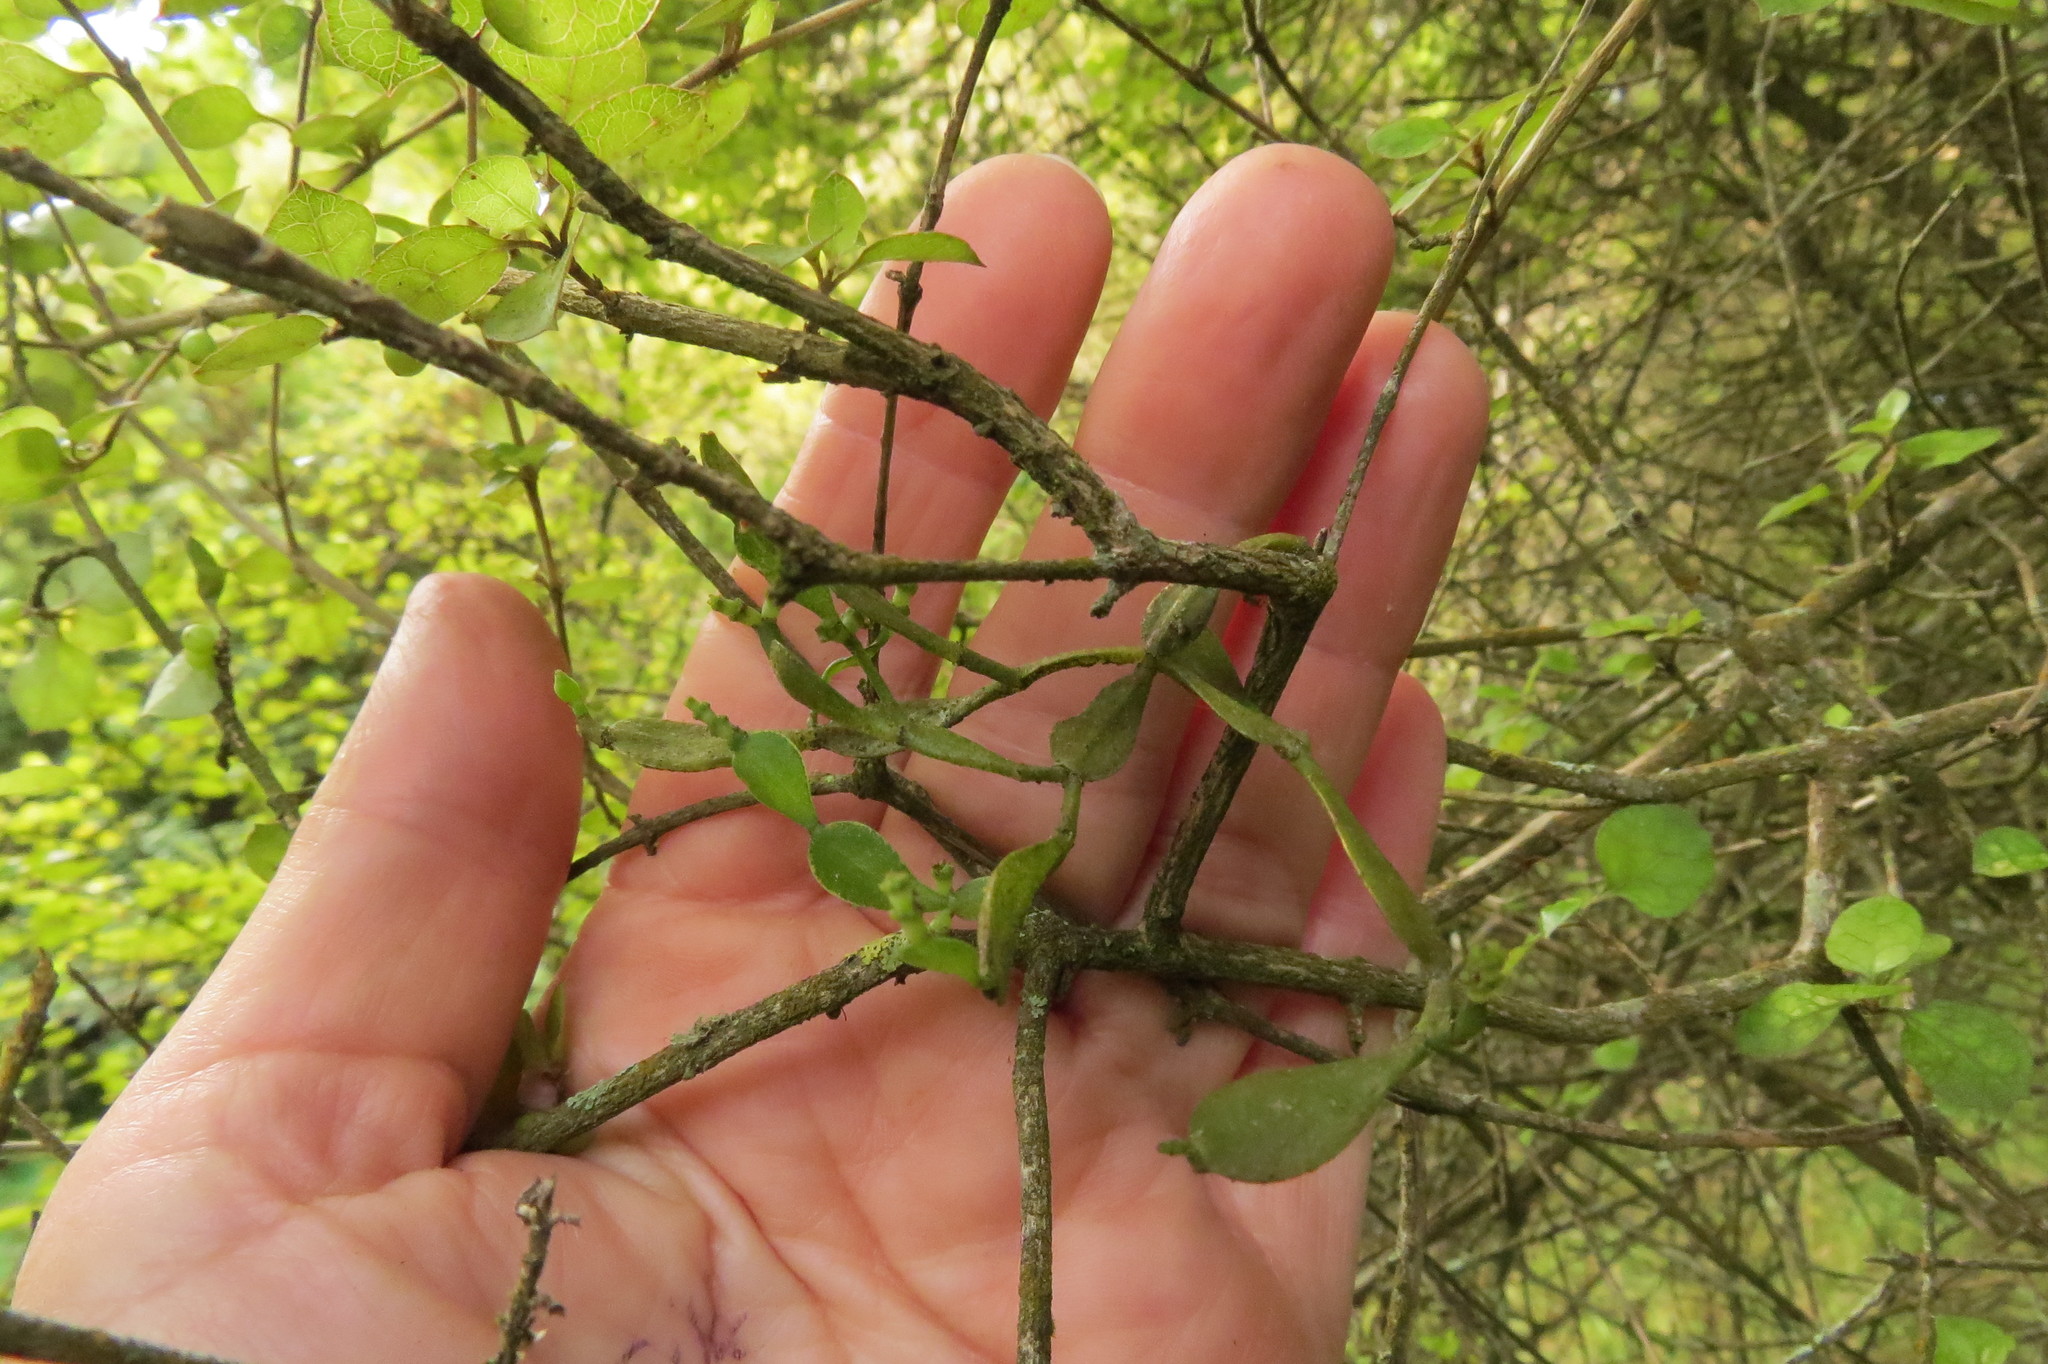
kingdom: Plantae
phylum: Tracheophyta
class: Magnoliopsida
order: Santalales
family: Viscaceae
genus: Korthalsella
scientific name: Korthalsella lindsayi
